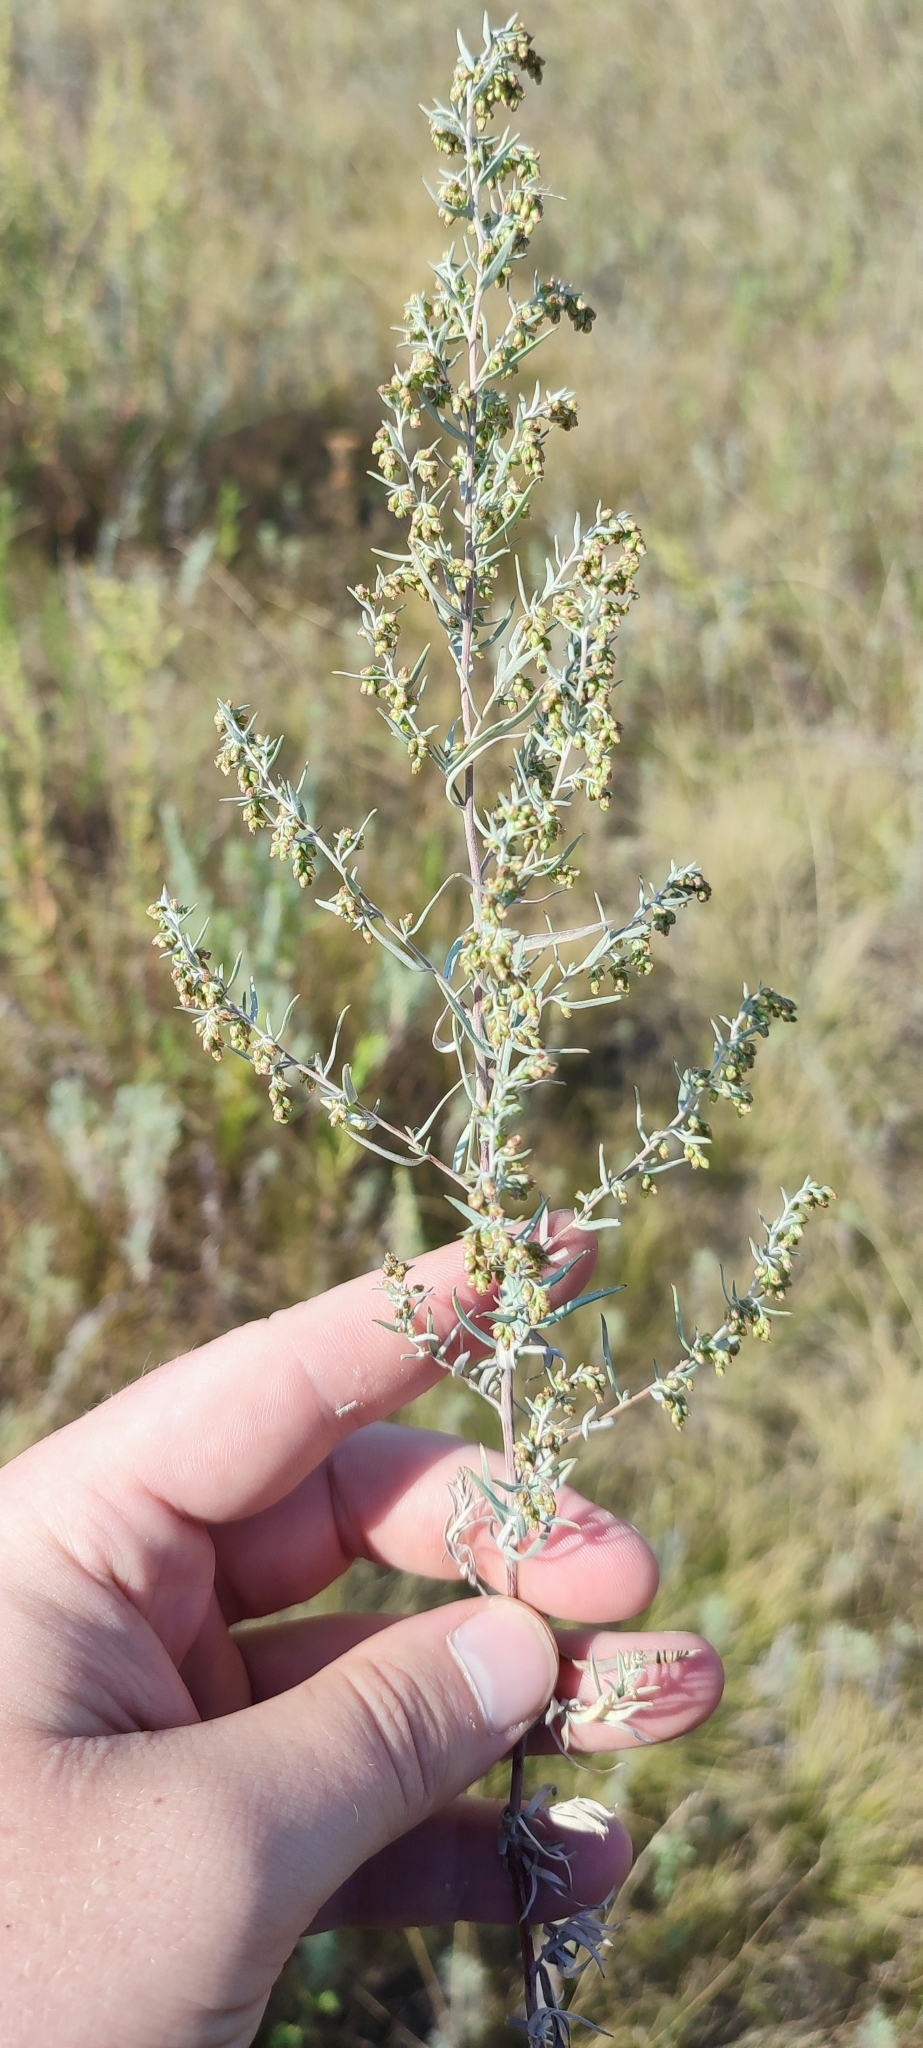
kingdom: Plantae
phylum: Tracheophyta
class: Magnoliopsida
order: Asterales
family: Asteraceae
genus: Artemisia
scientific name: Artemisia glauca
